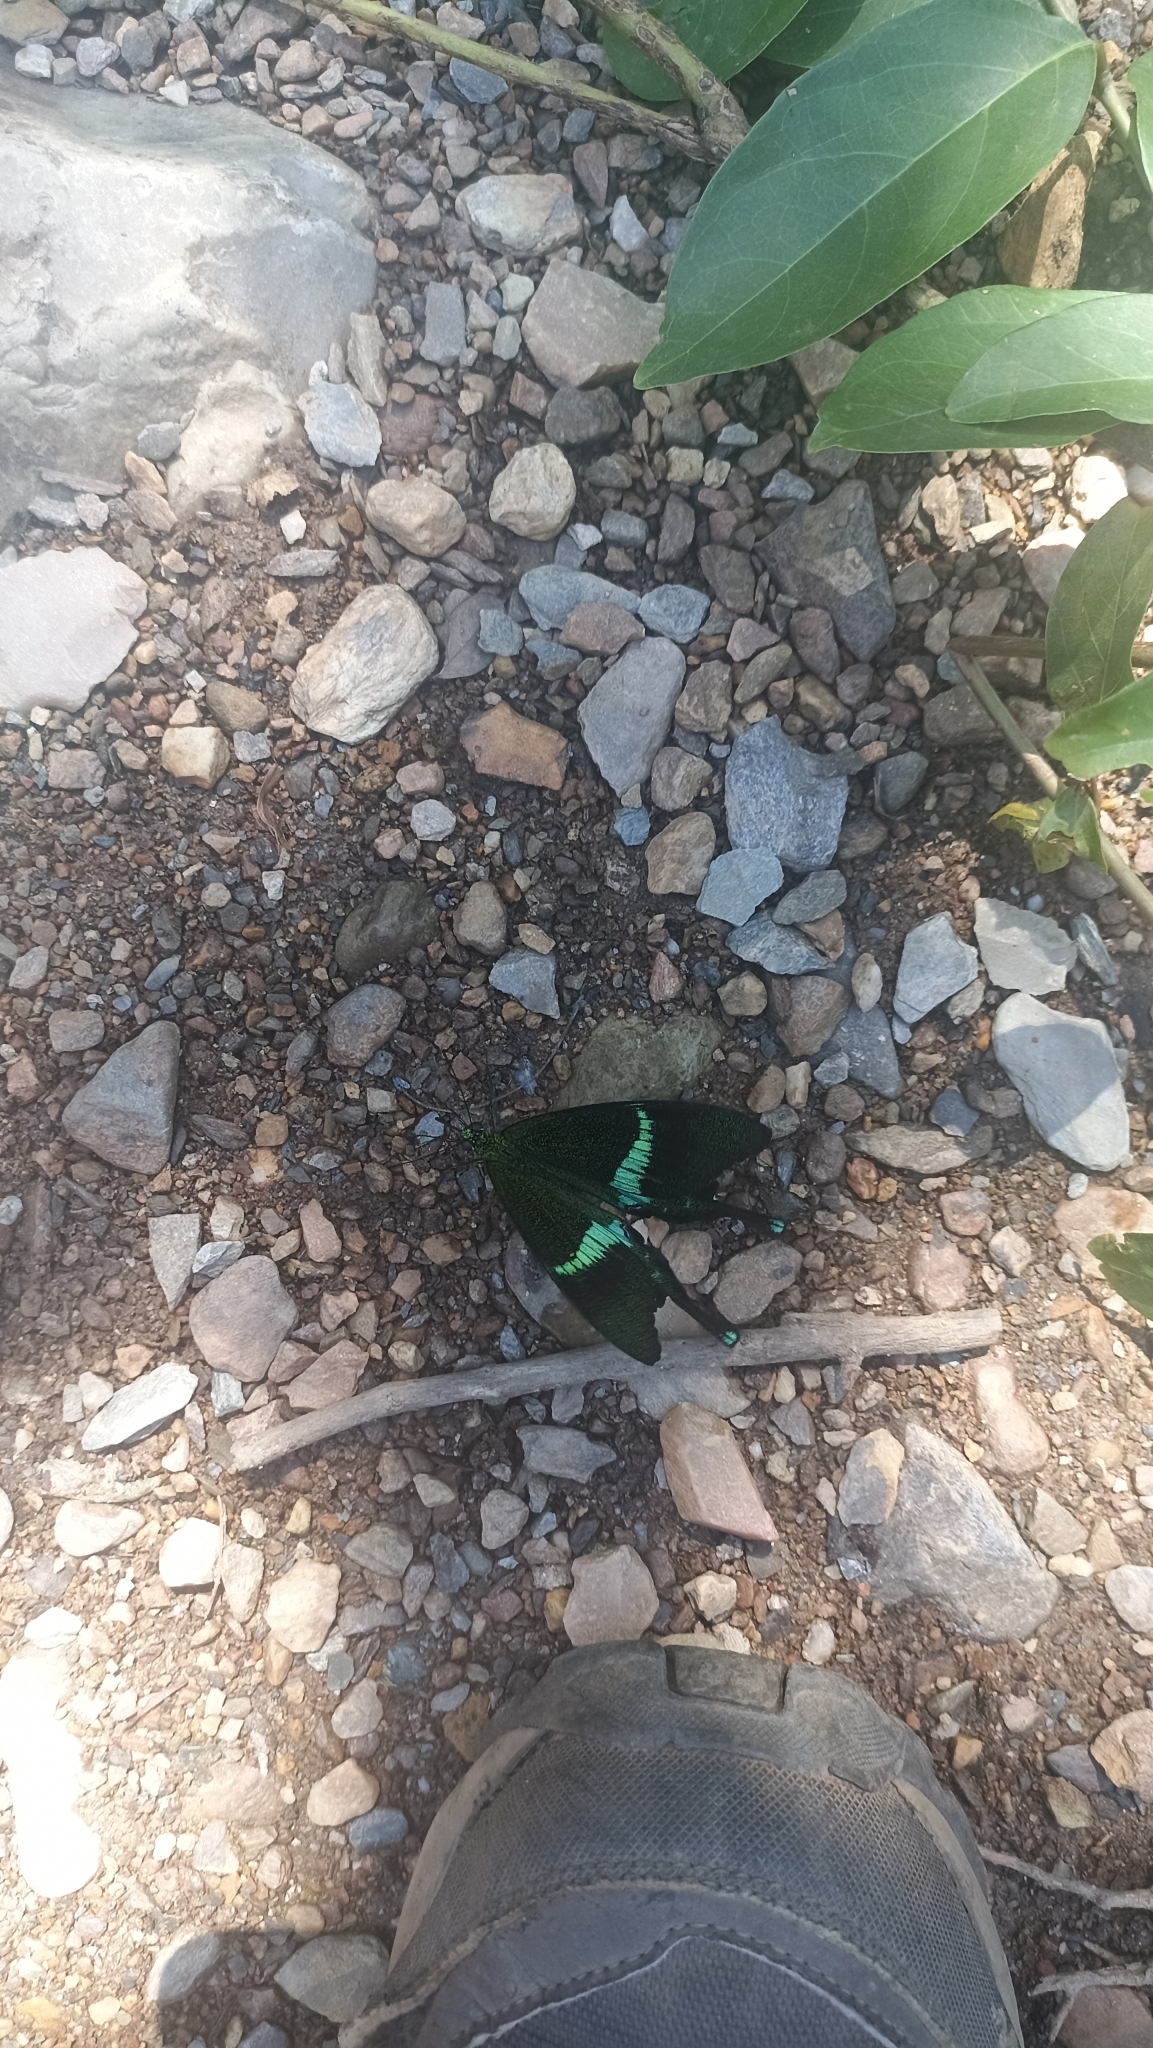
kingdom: Animalia
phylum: Arthropoda
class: Insecta
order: Lepidoptera
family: Papilionidae
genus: Papilio
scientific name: Papilio crino
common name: Common banded peacock
